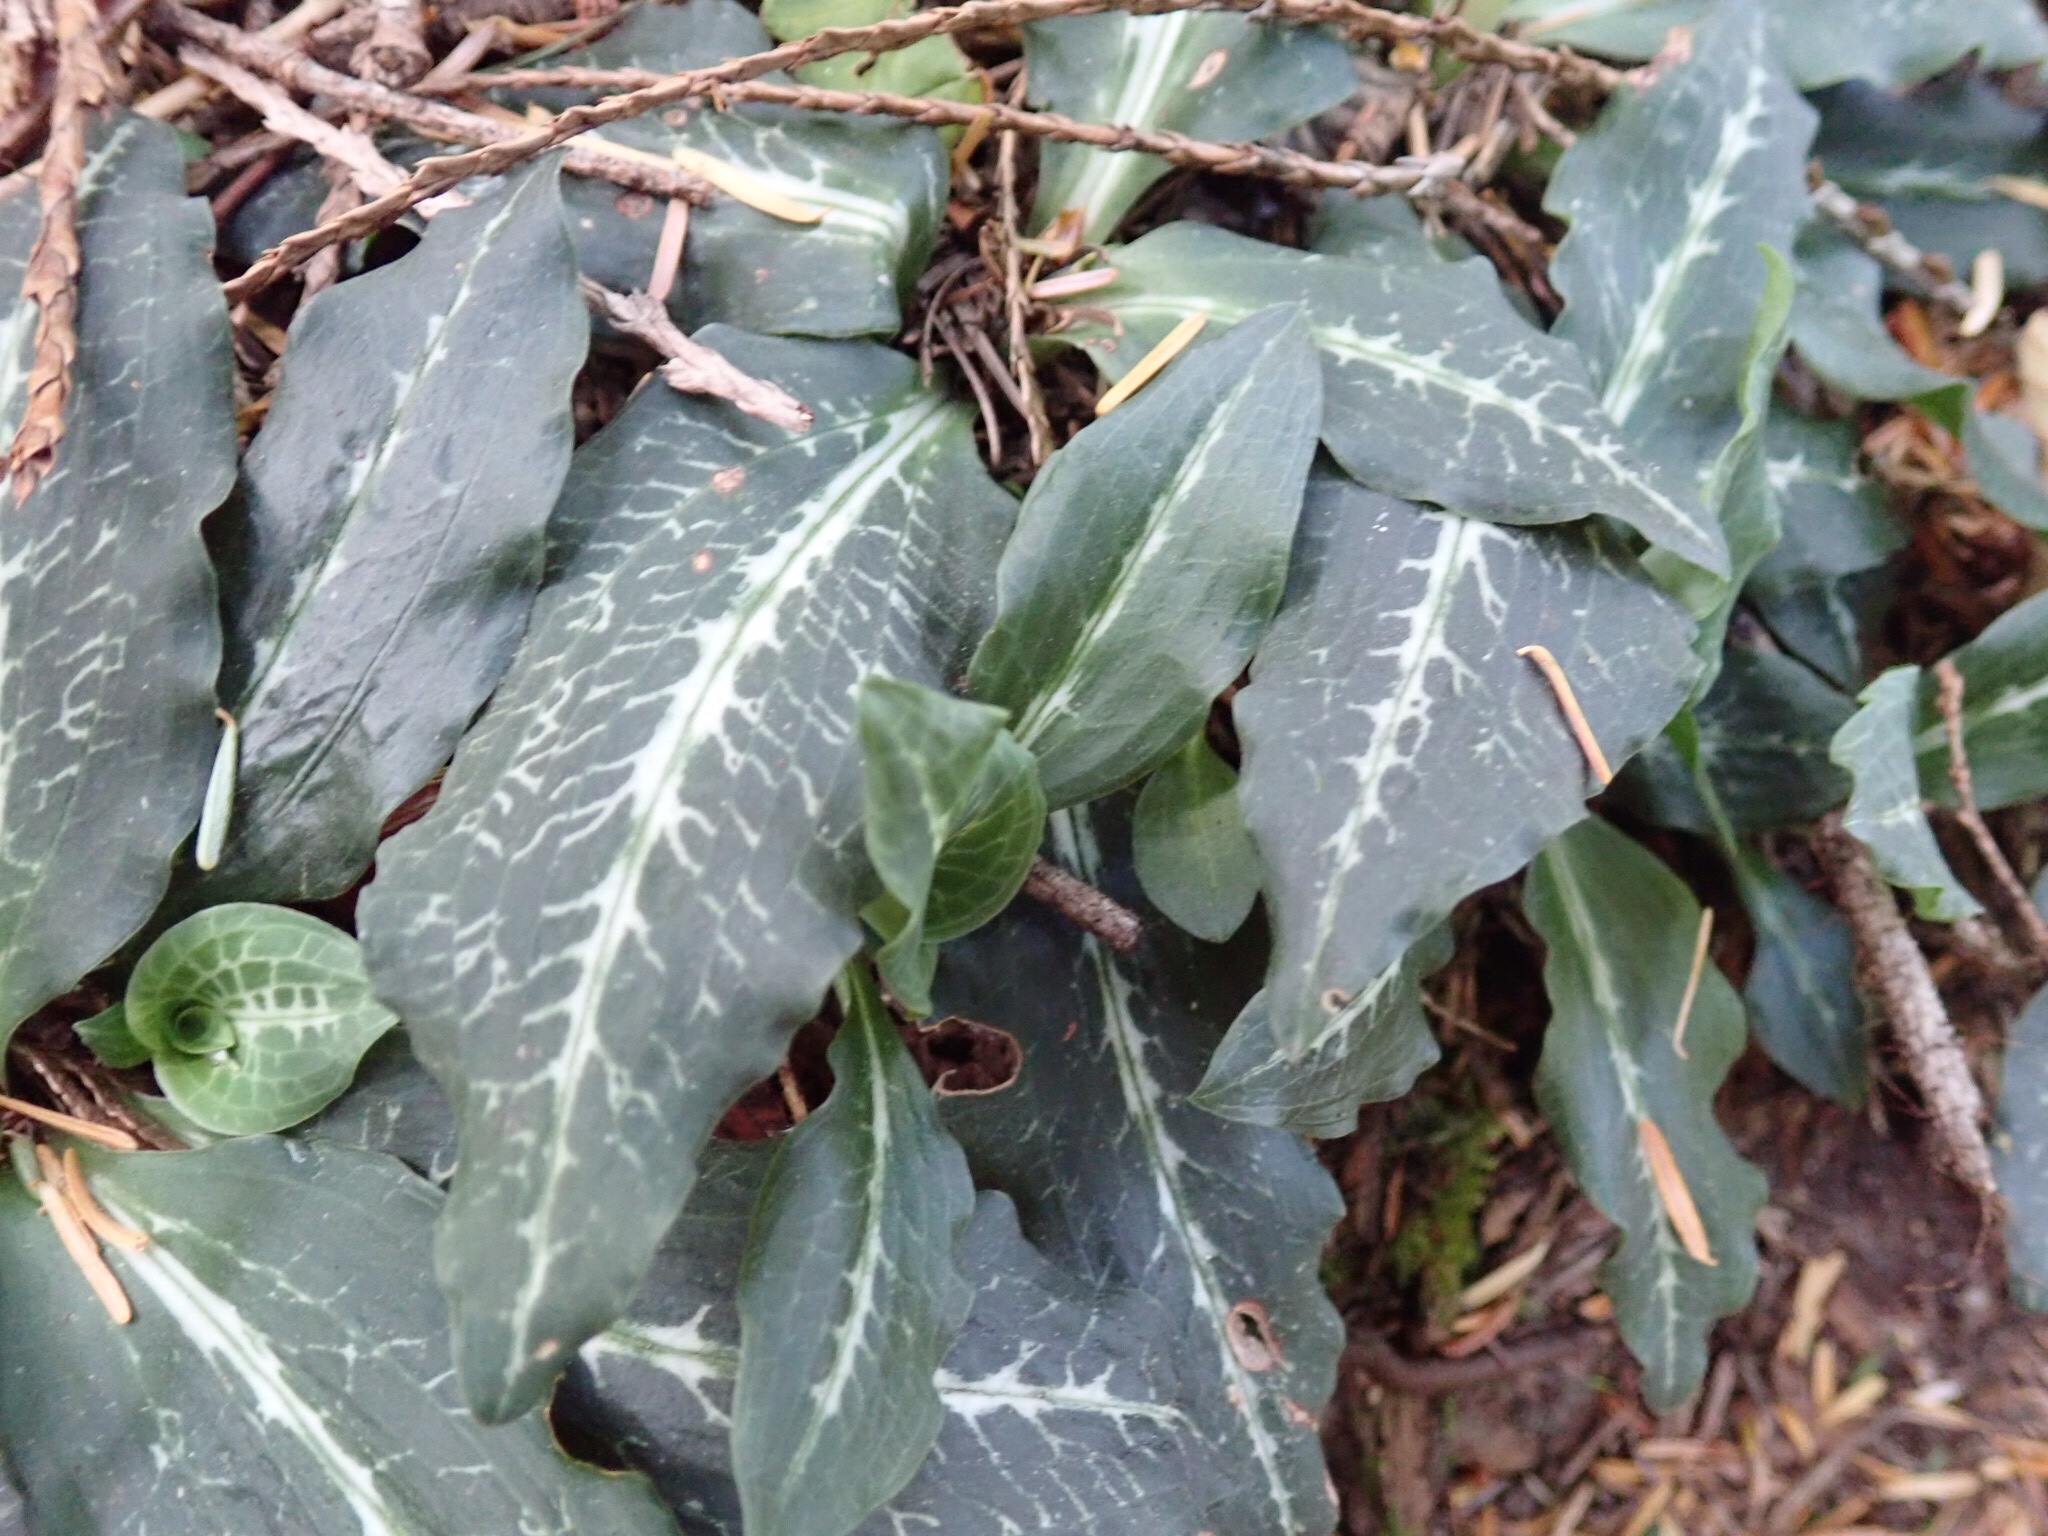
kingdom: Plantae
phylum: Tracheophyta
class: Liliopsida
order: Asparagales
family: Orchidaceae
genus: Goodyera
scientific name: Goodyera oblongifolia
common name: Giant rattlesnake-plantain
